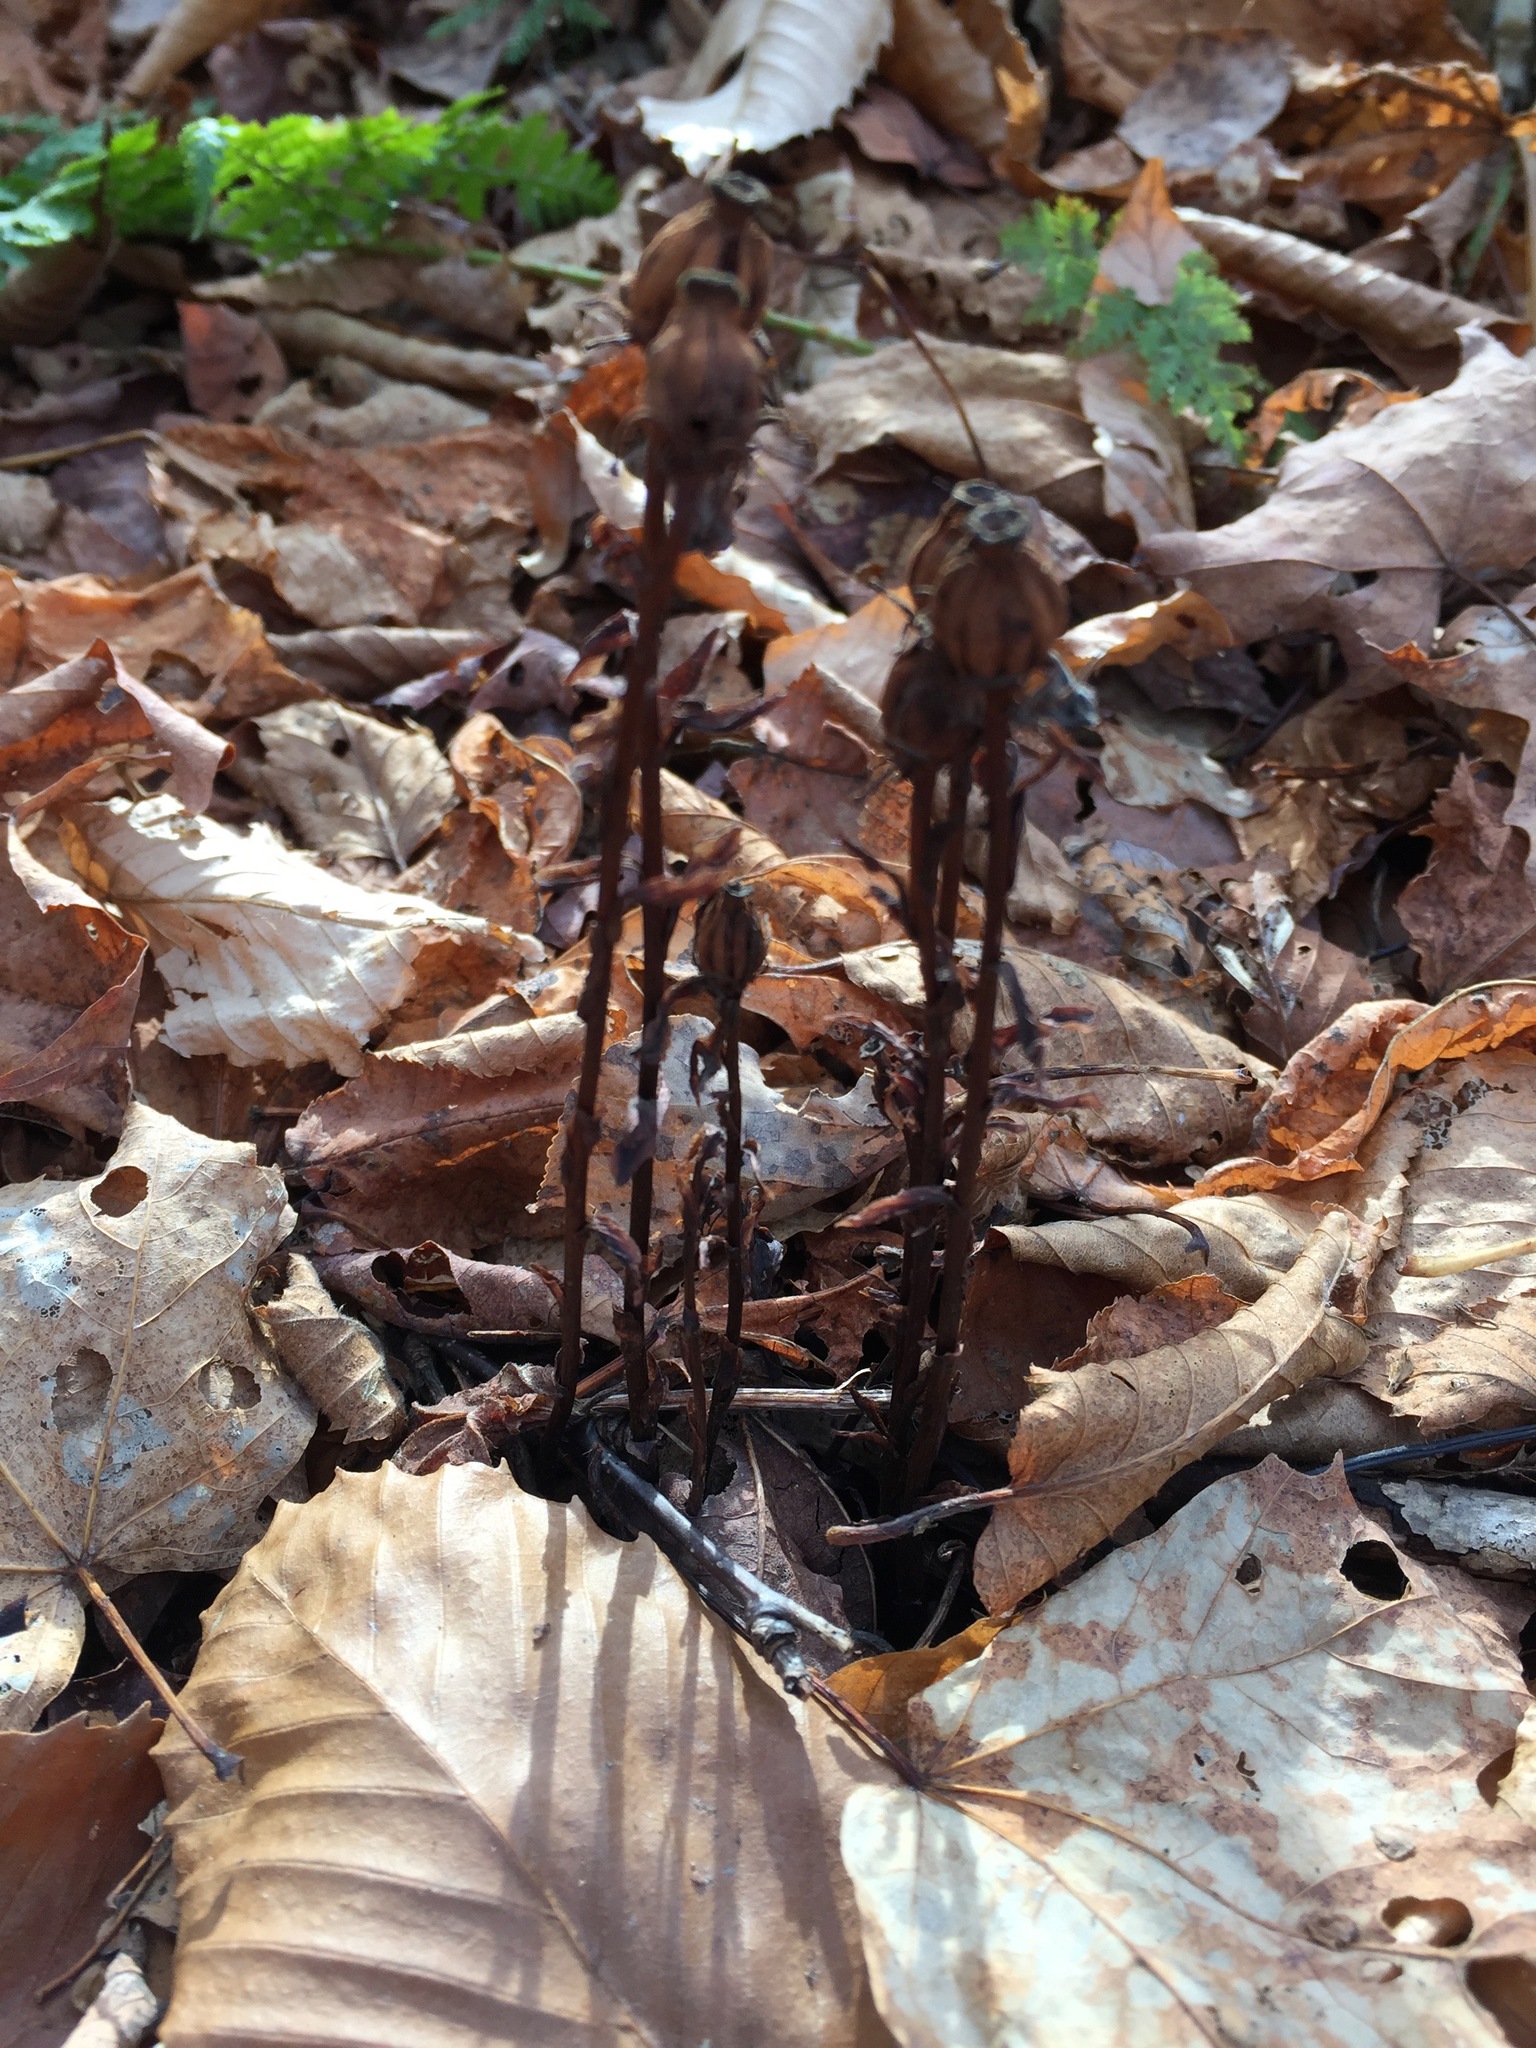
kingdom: Plantae
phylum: Tracheophyta
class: Magnoliopsida
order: Ericales
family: Ericaceae
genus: Monotropa
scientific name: Monotropa uniflora
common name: Convulsion root
